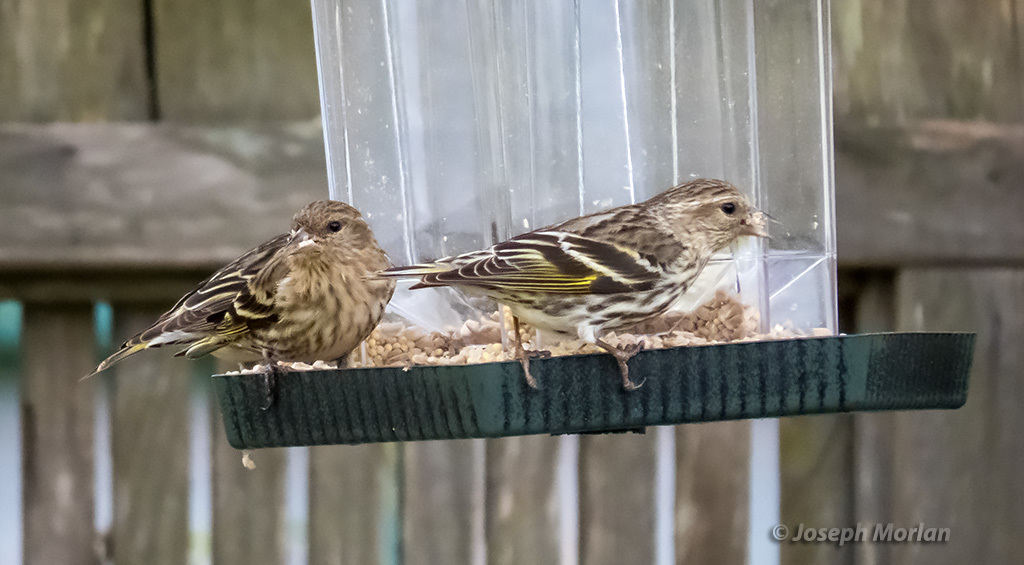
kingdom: Animalia
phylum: Chordata
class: Aves
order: Passeriformes
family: Fringillidae
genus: Spinus
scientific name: Spinus pinus
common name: Pine siskin
